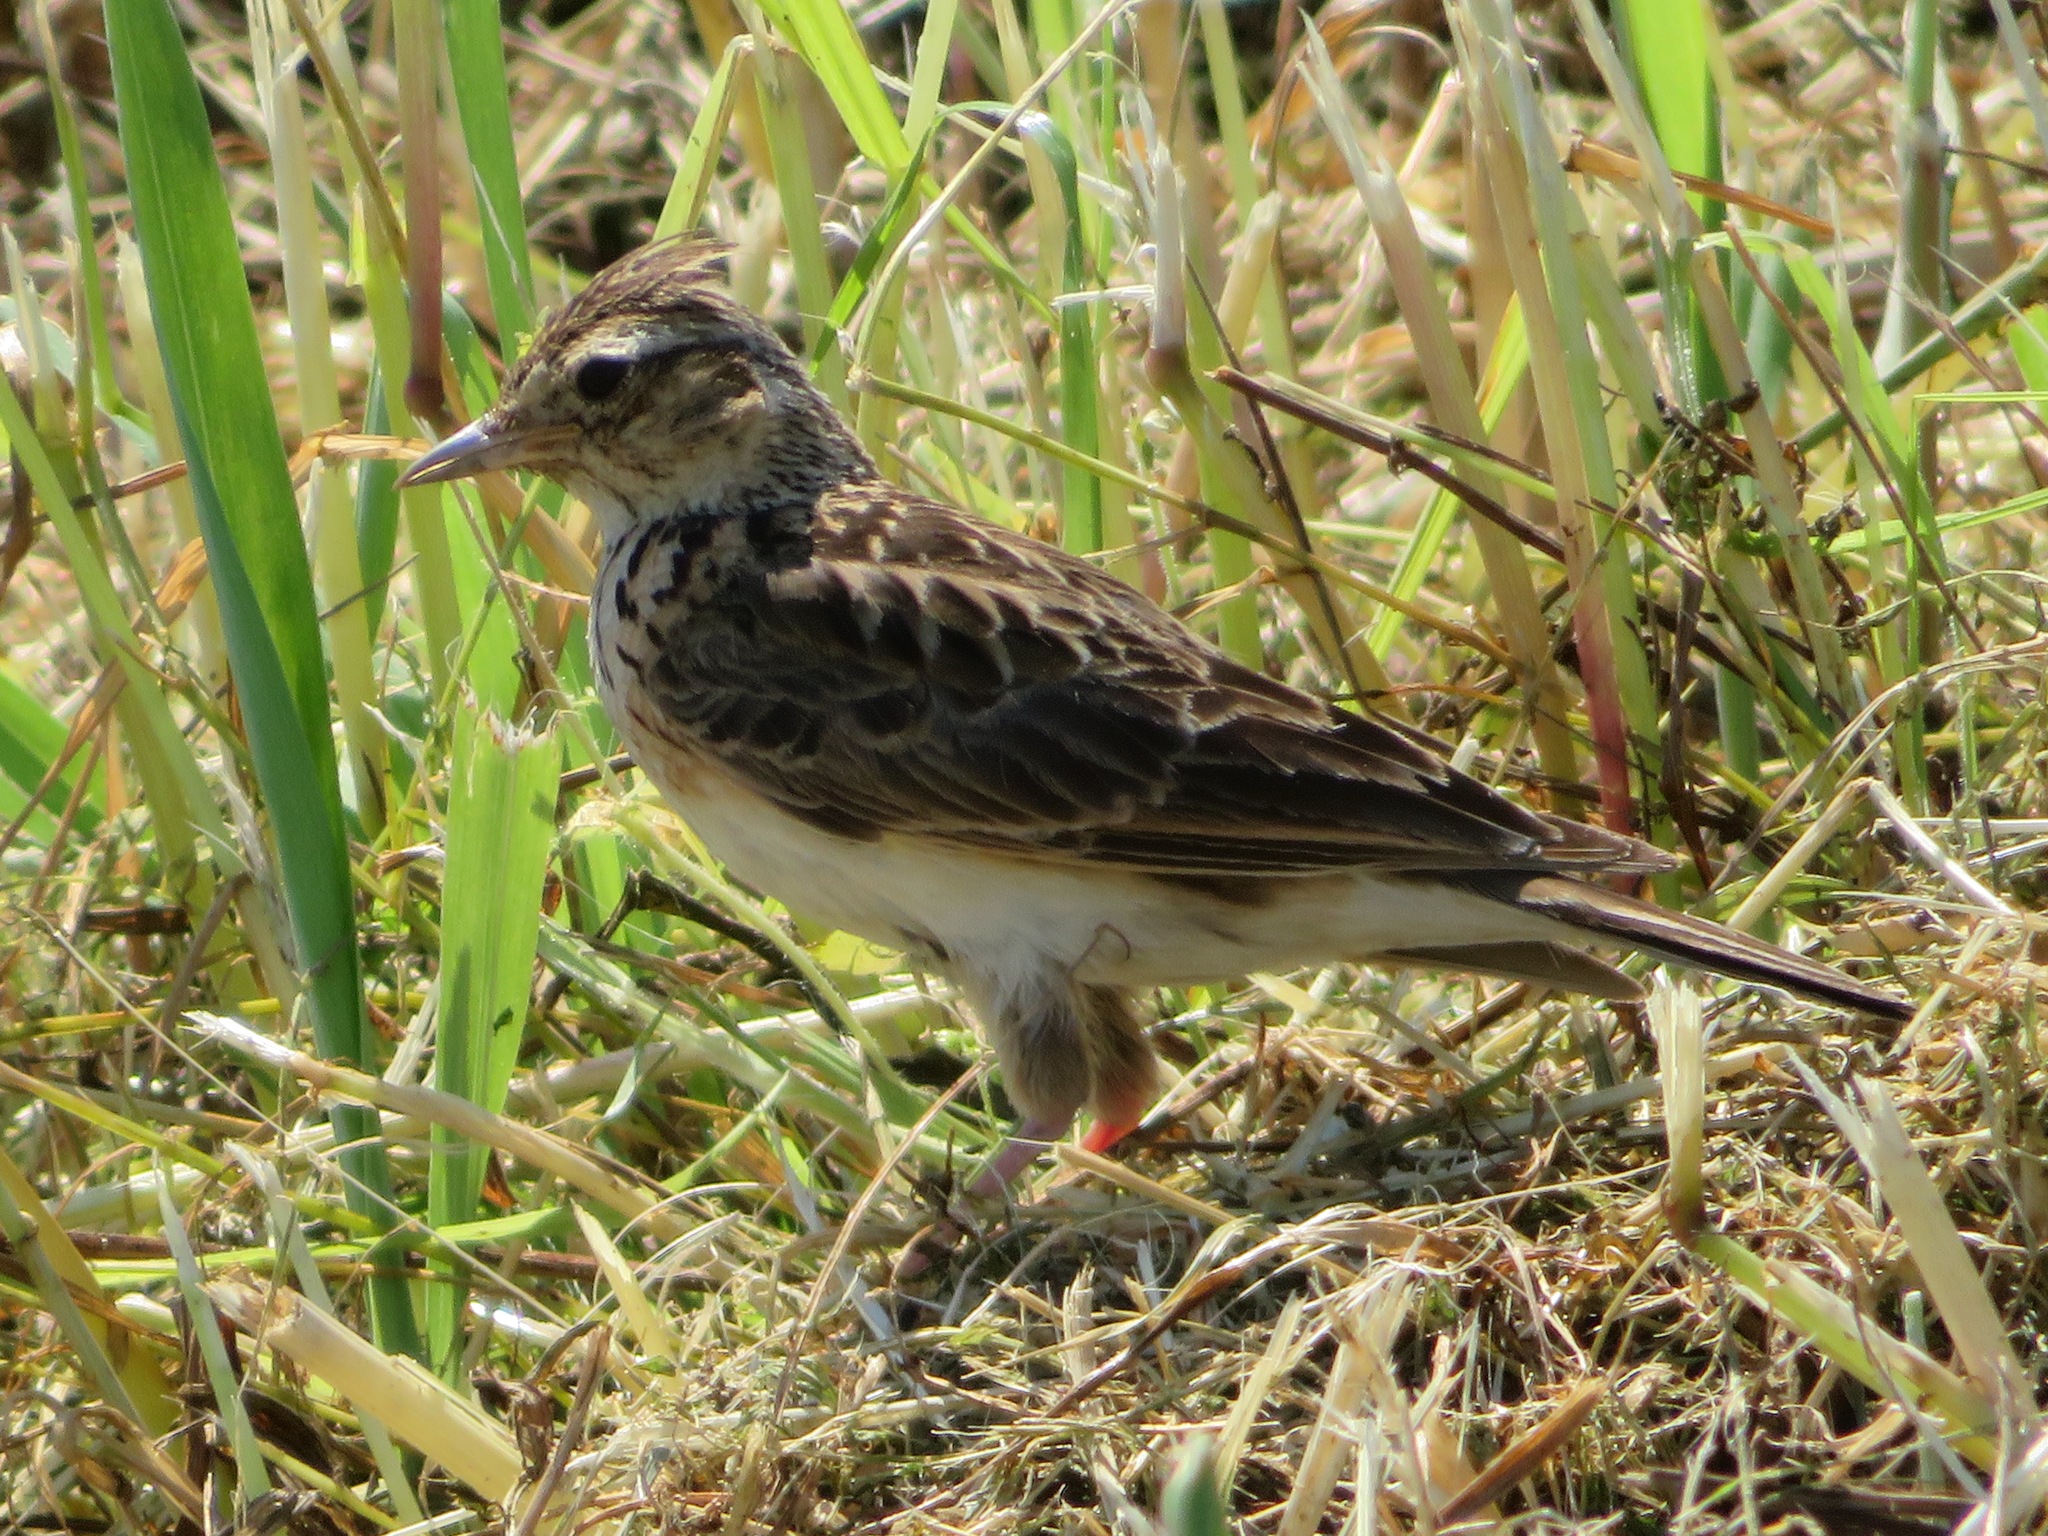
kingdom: Animalia
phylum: Chordata
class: Aves
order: Passeriformes
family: Alaudidae
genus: Alauda
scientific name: Alauda arvensis
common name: Eurasian skylark
